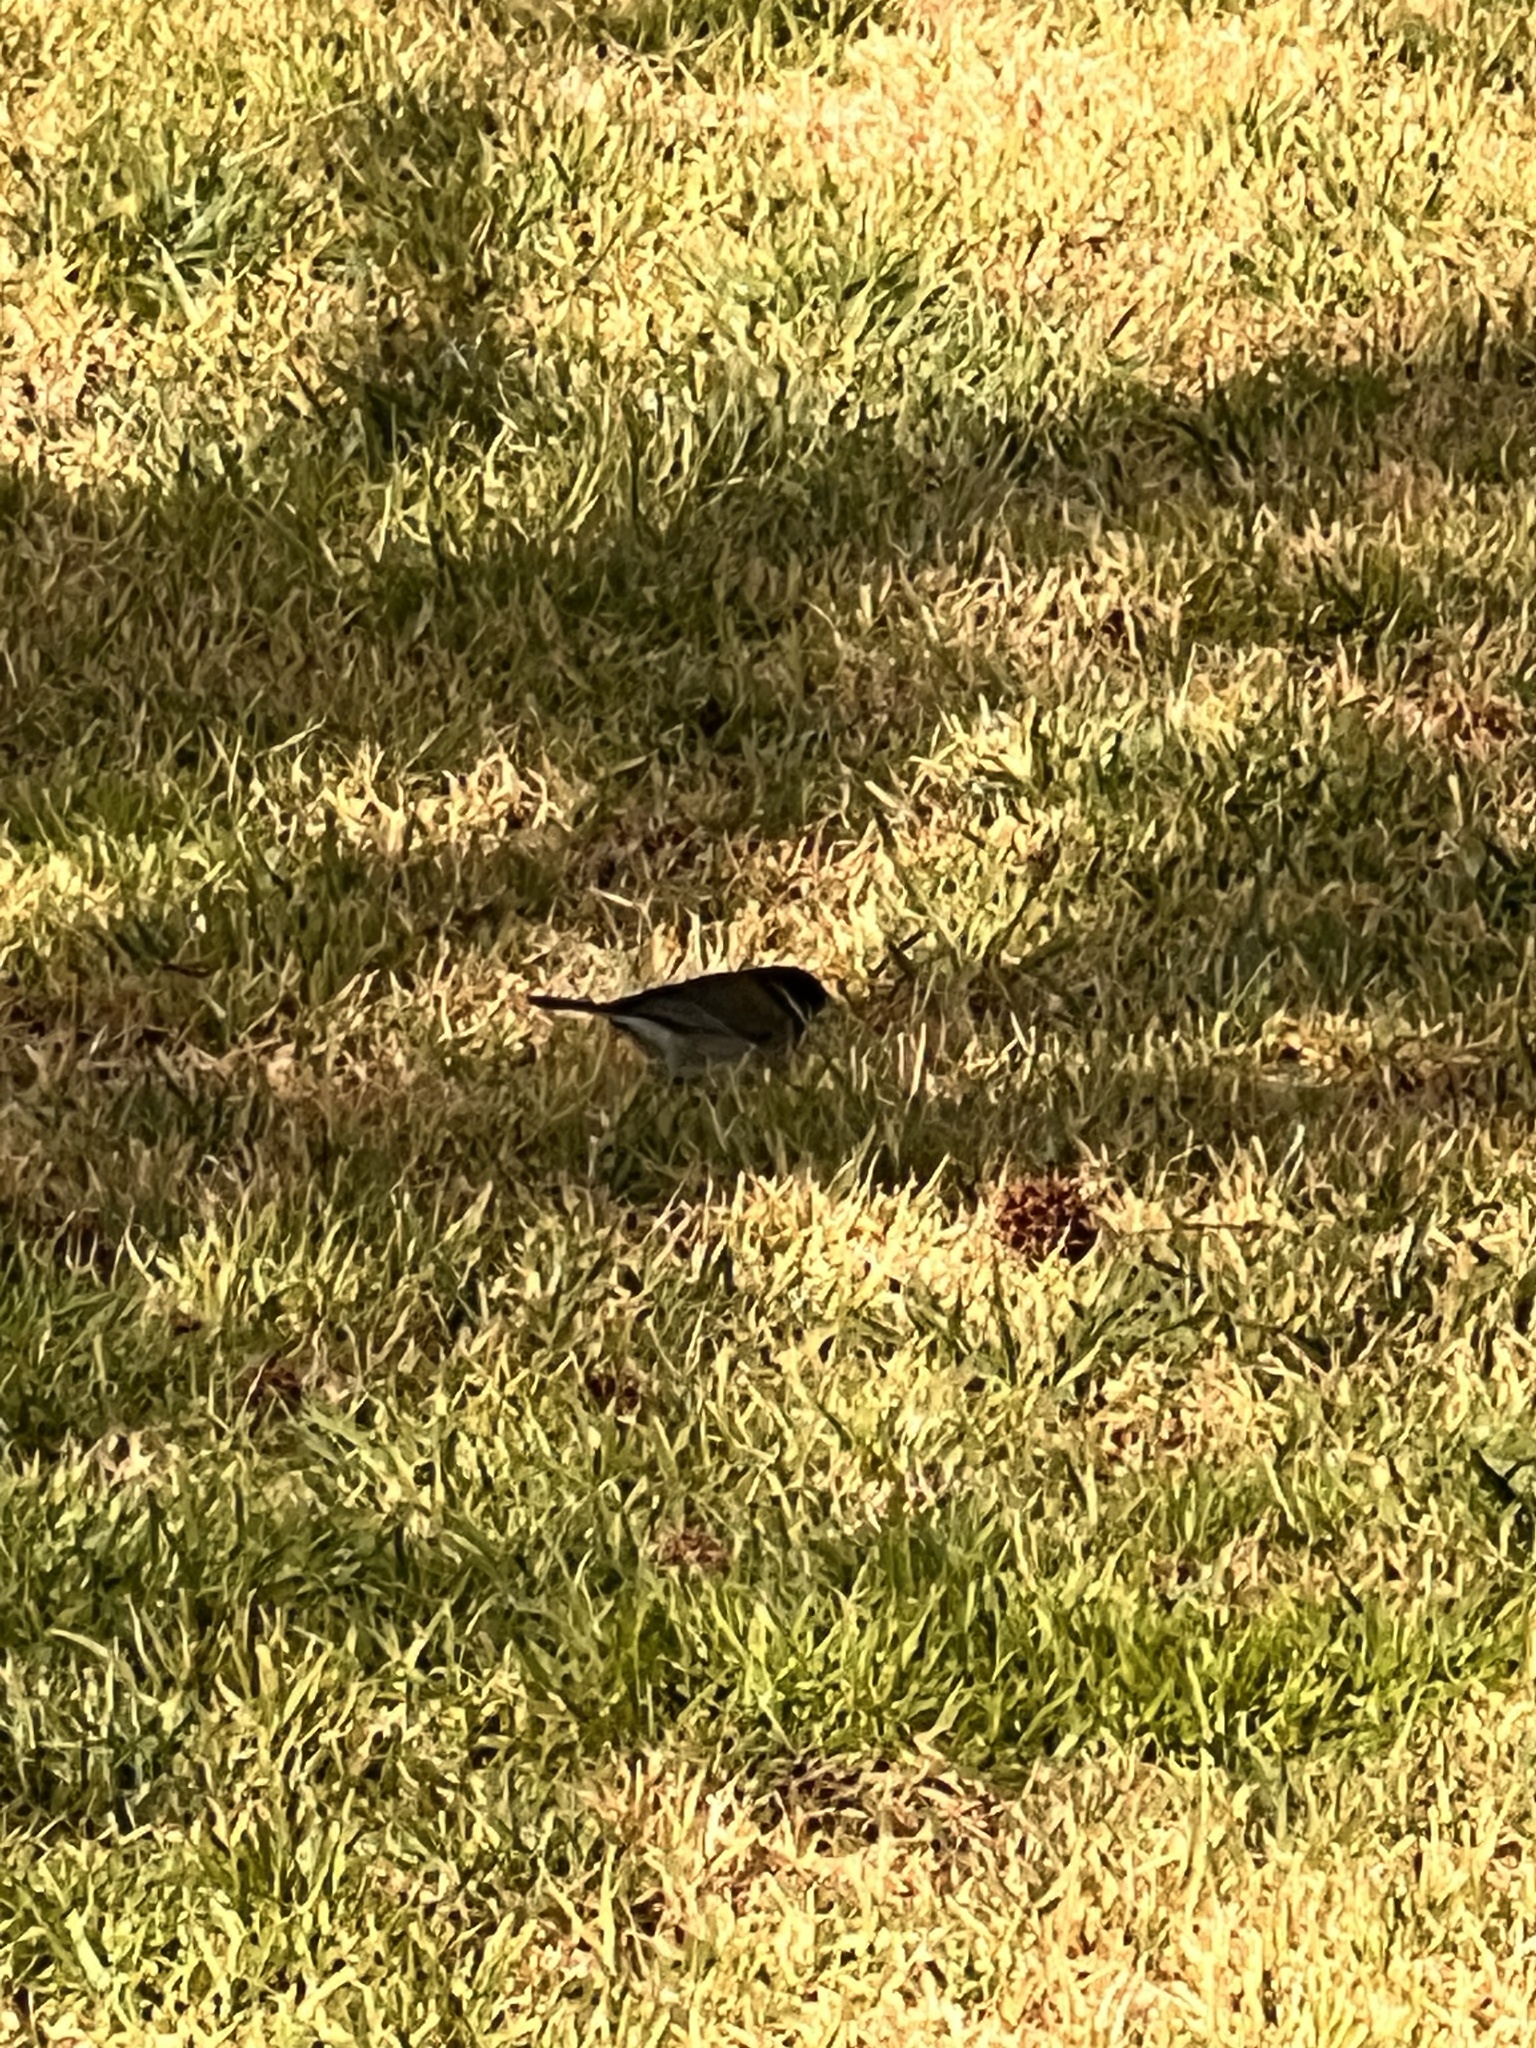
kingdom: Animalia
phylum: Chordata
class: Aves
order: Passeriformes
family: Passerellidae
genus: Junco
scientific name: Junco hyemalis
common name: Dark-eyed junco
